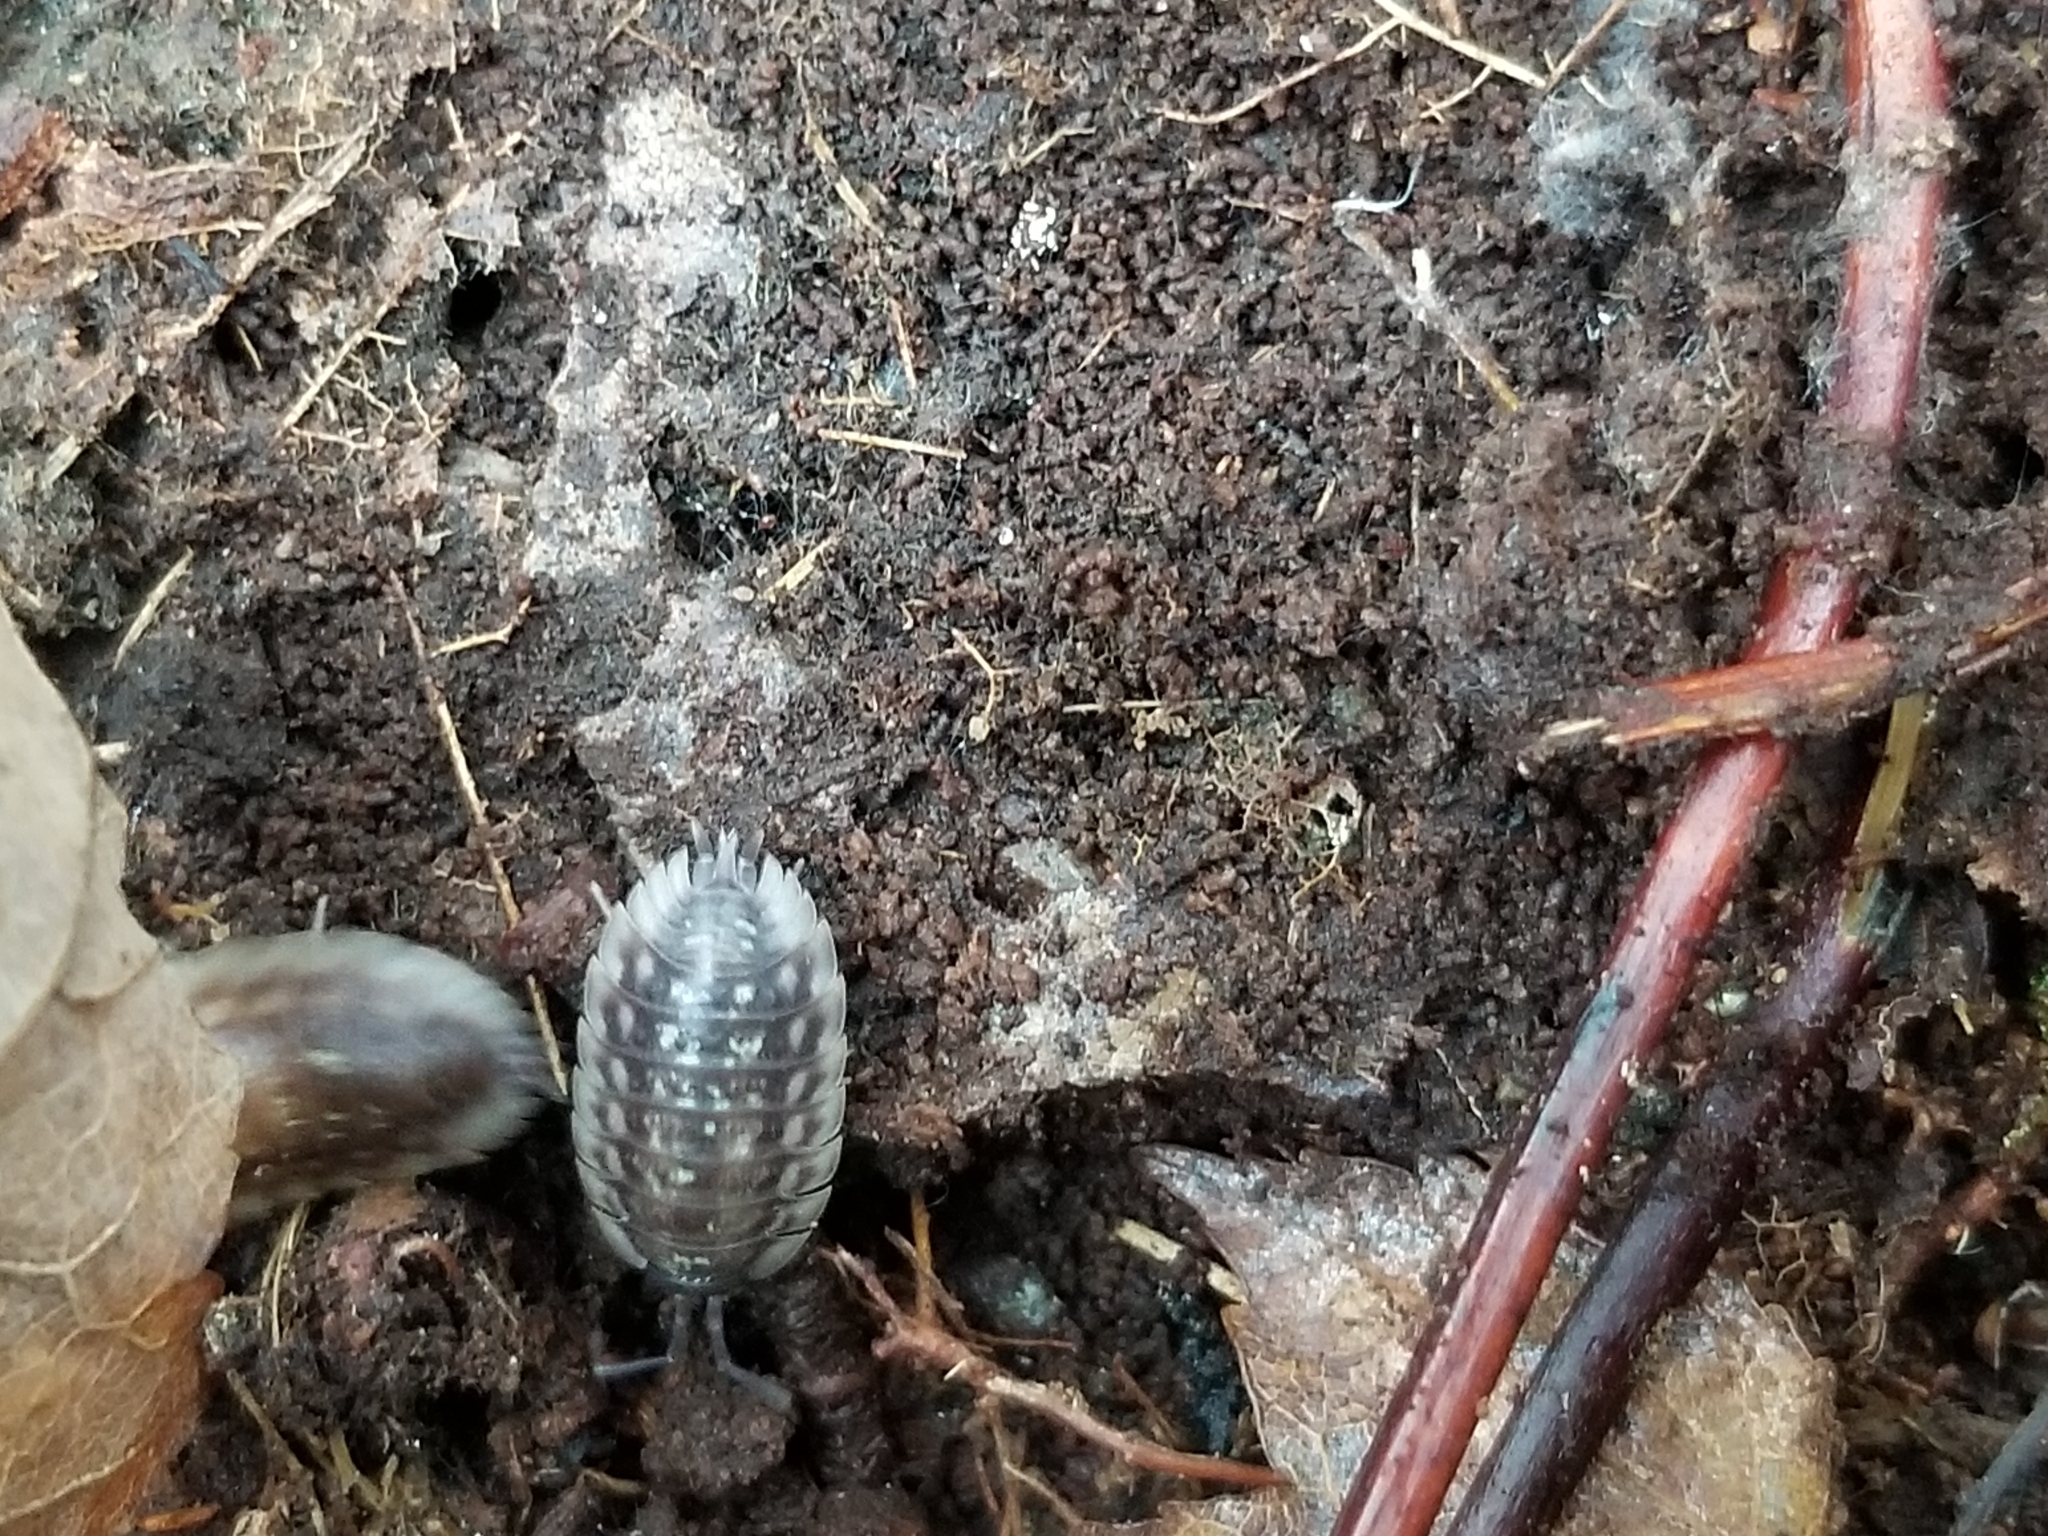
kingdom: Animalia
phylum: Arthropoda
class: Malacostraca
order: Isopoda
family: Oniscidae
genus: Oniscus
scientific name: Oniscus asellus
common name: Common shiny woodlouse
